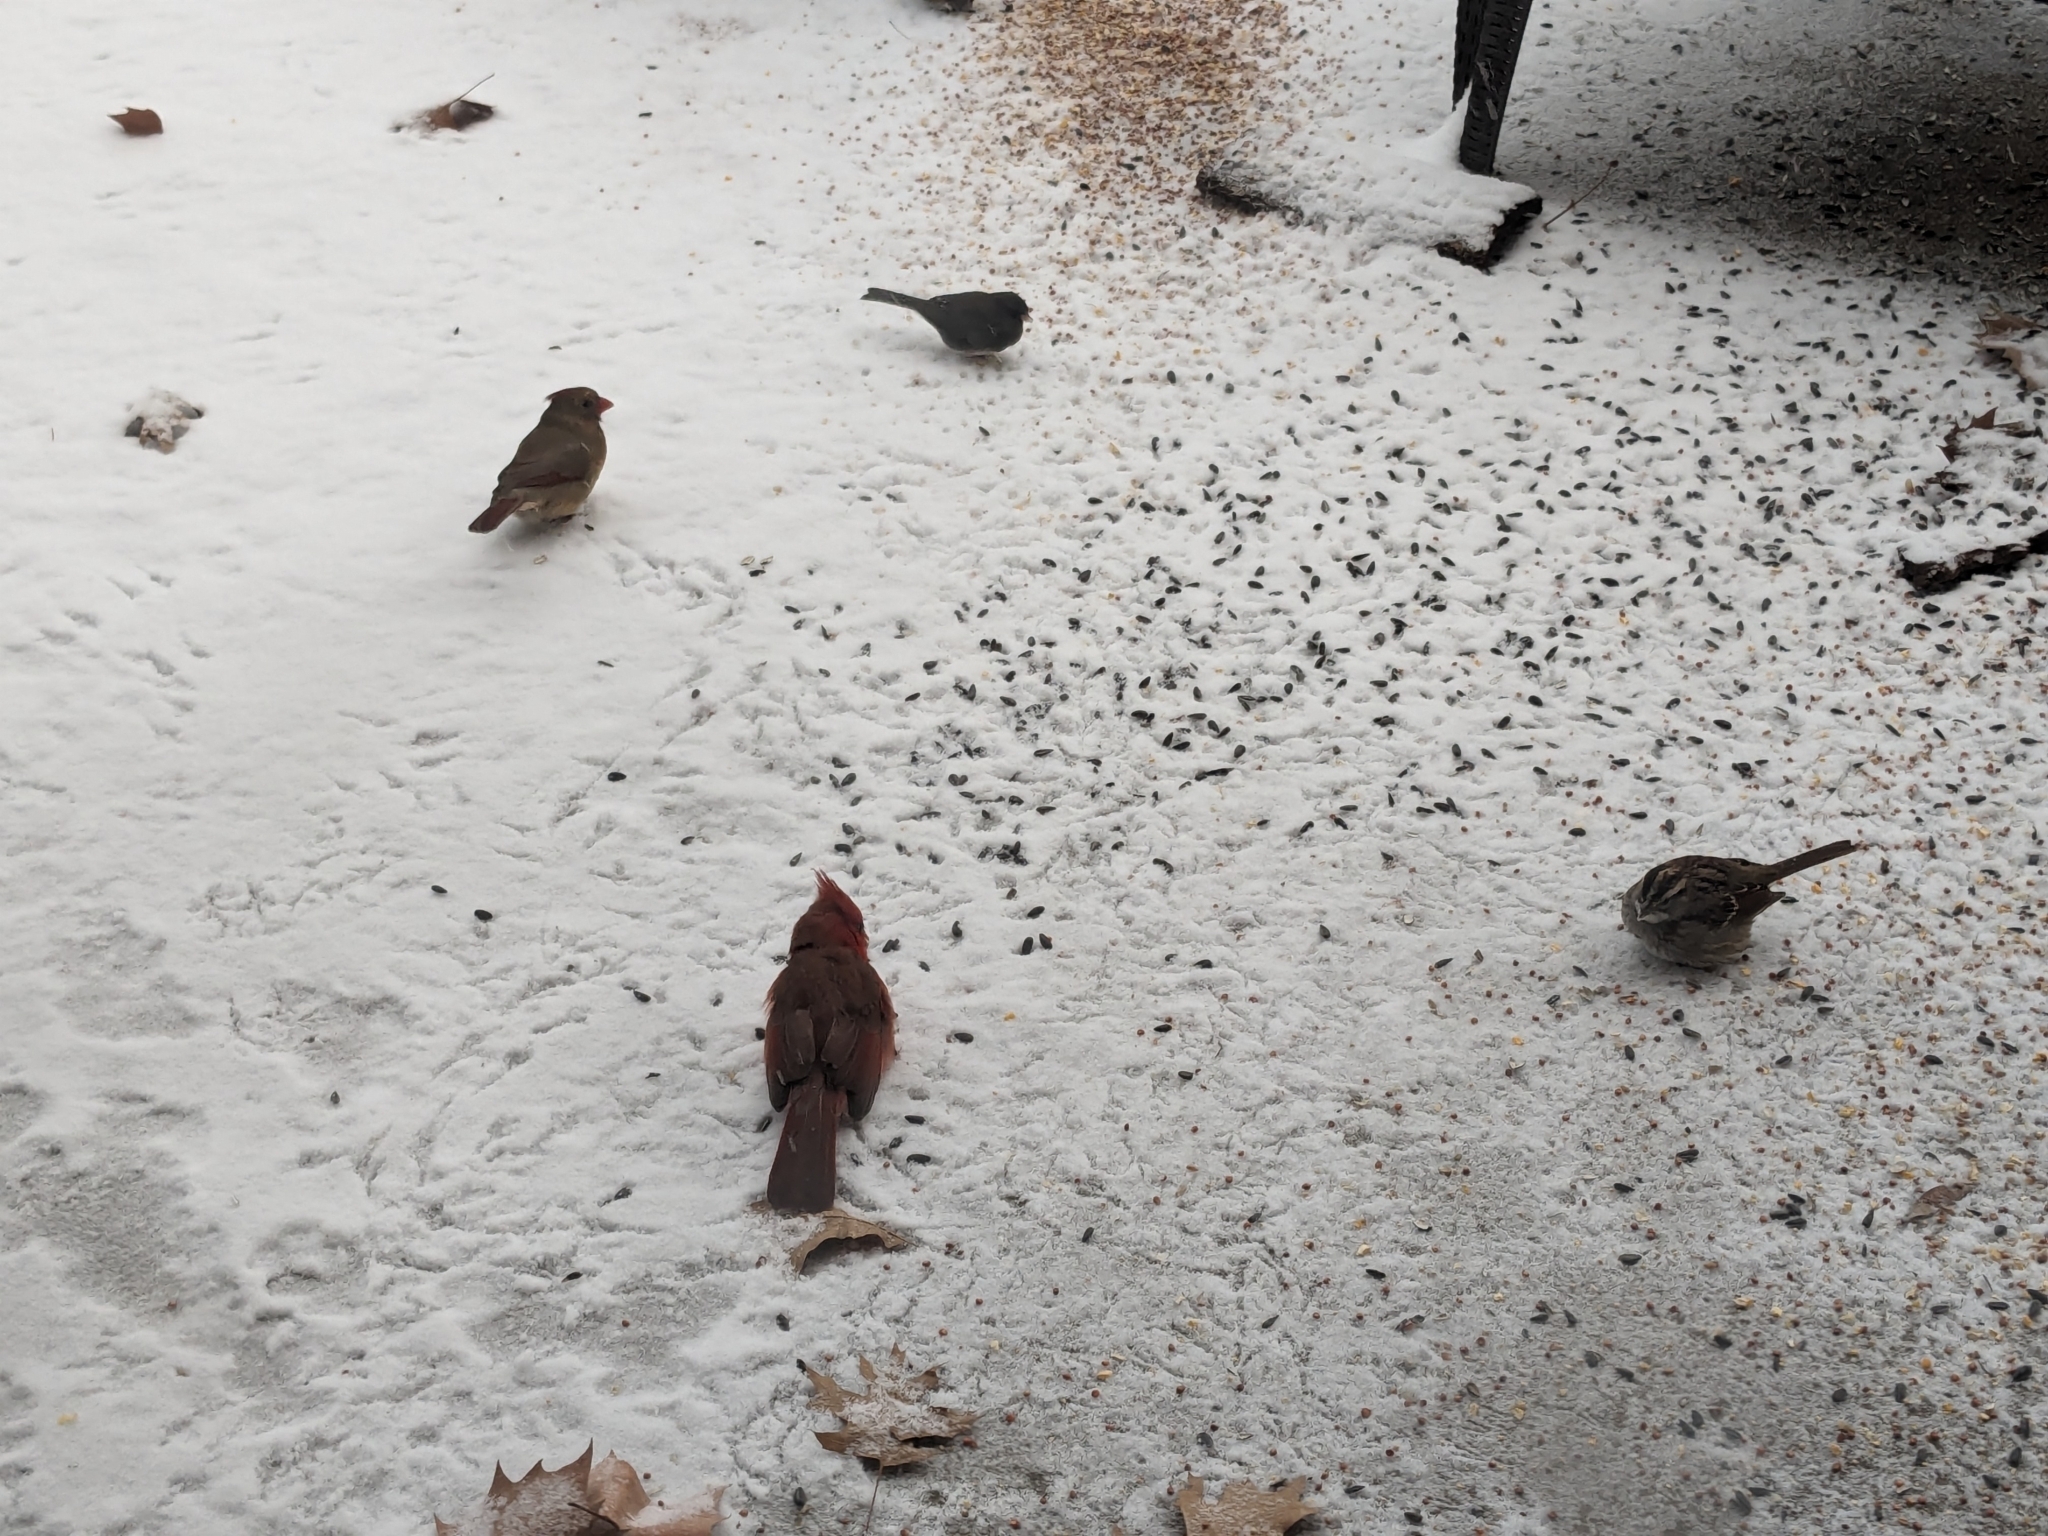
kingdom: Animalia
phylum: Chordata
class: Aves
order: Passeriformes
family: Cardinalidae
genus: Cardinalis
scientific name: Cardinalis cardinalis
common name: Northern cardinal
